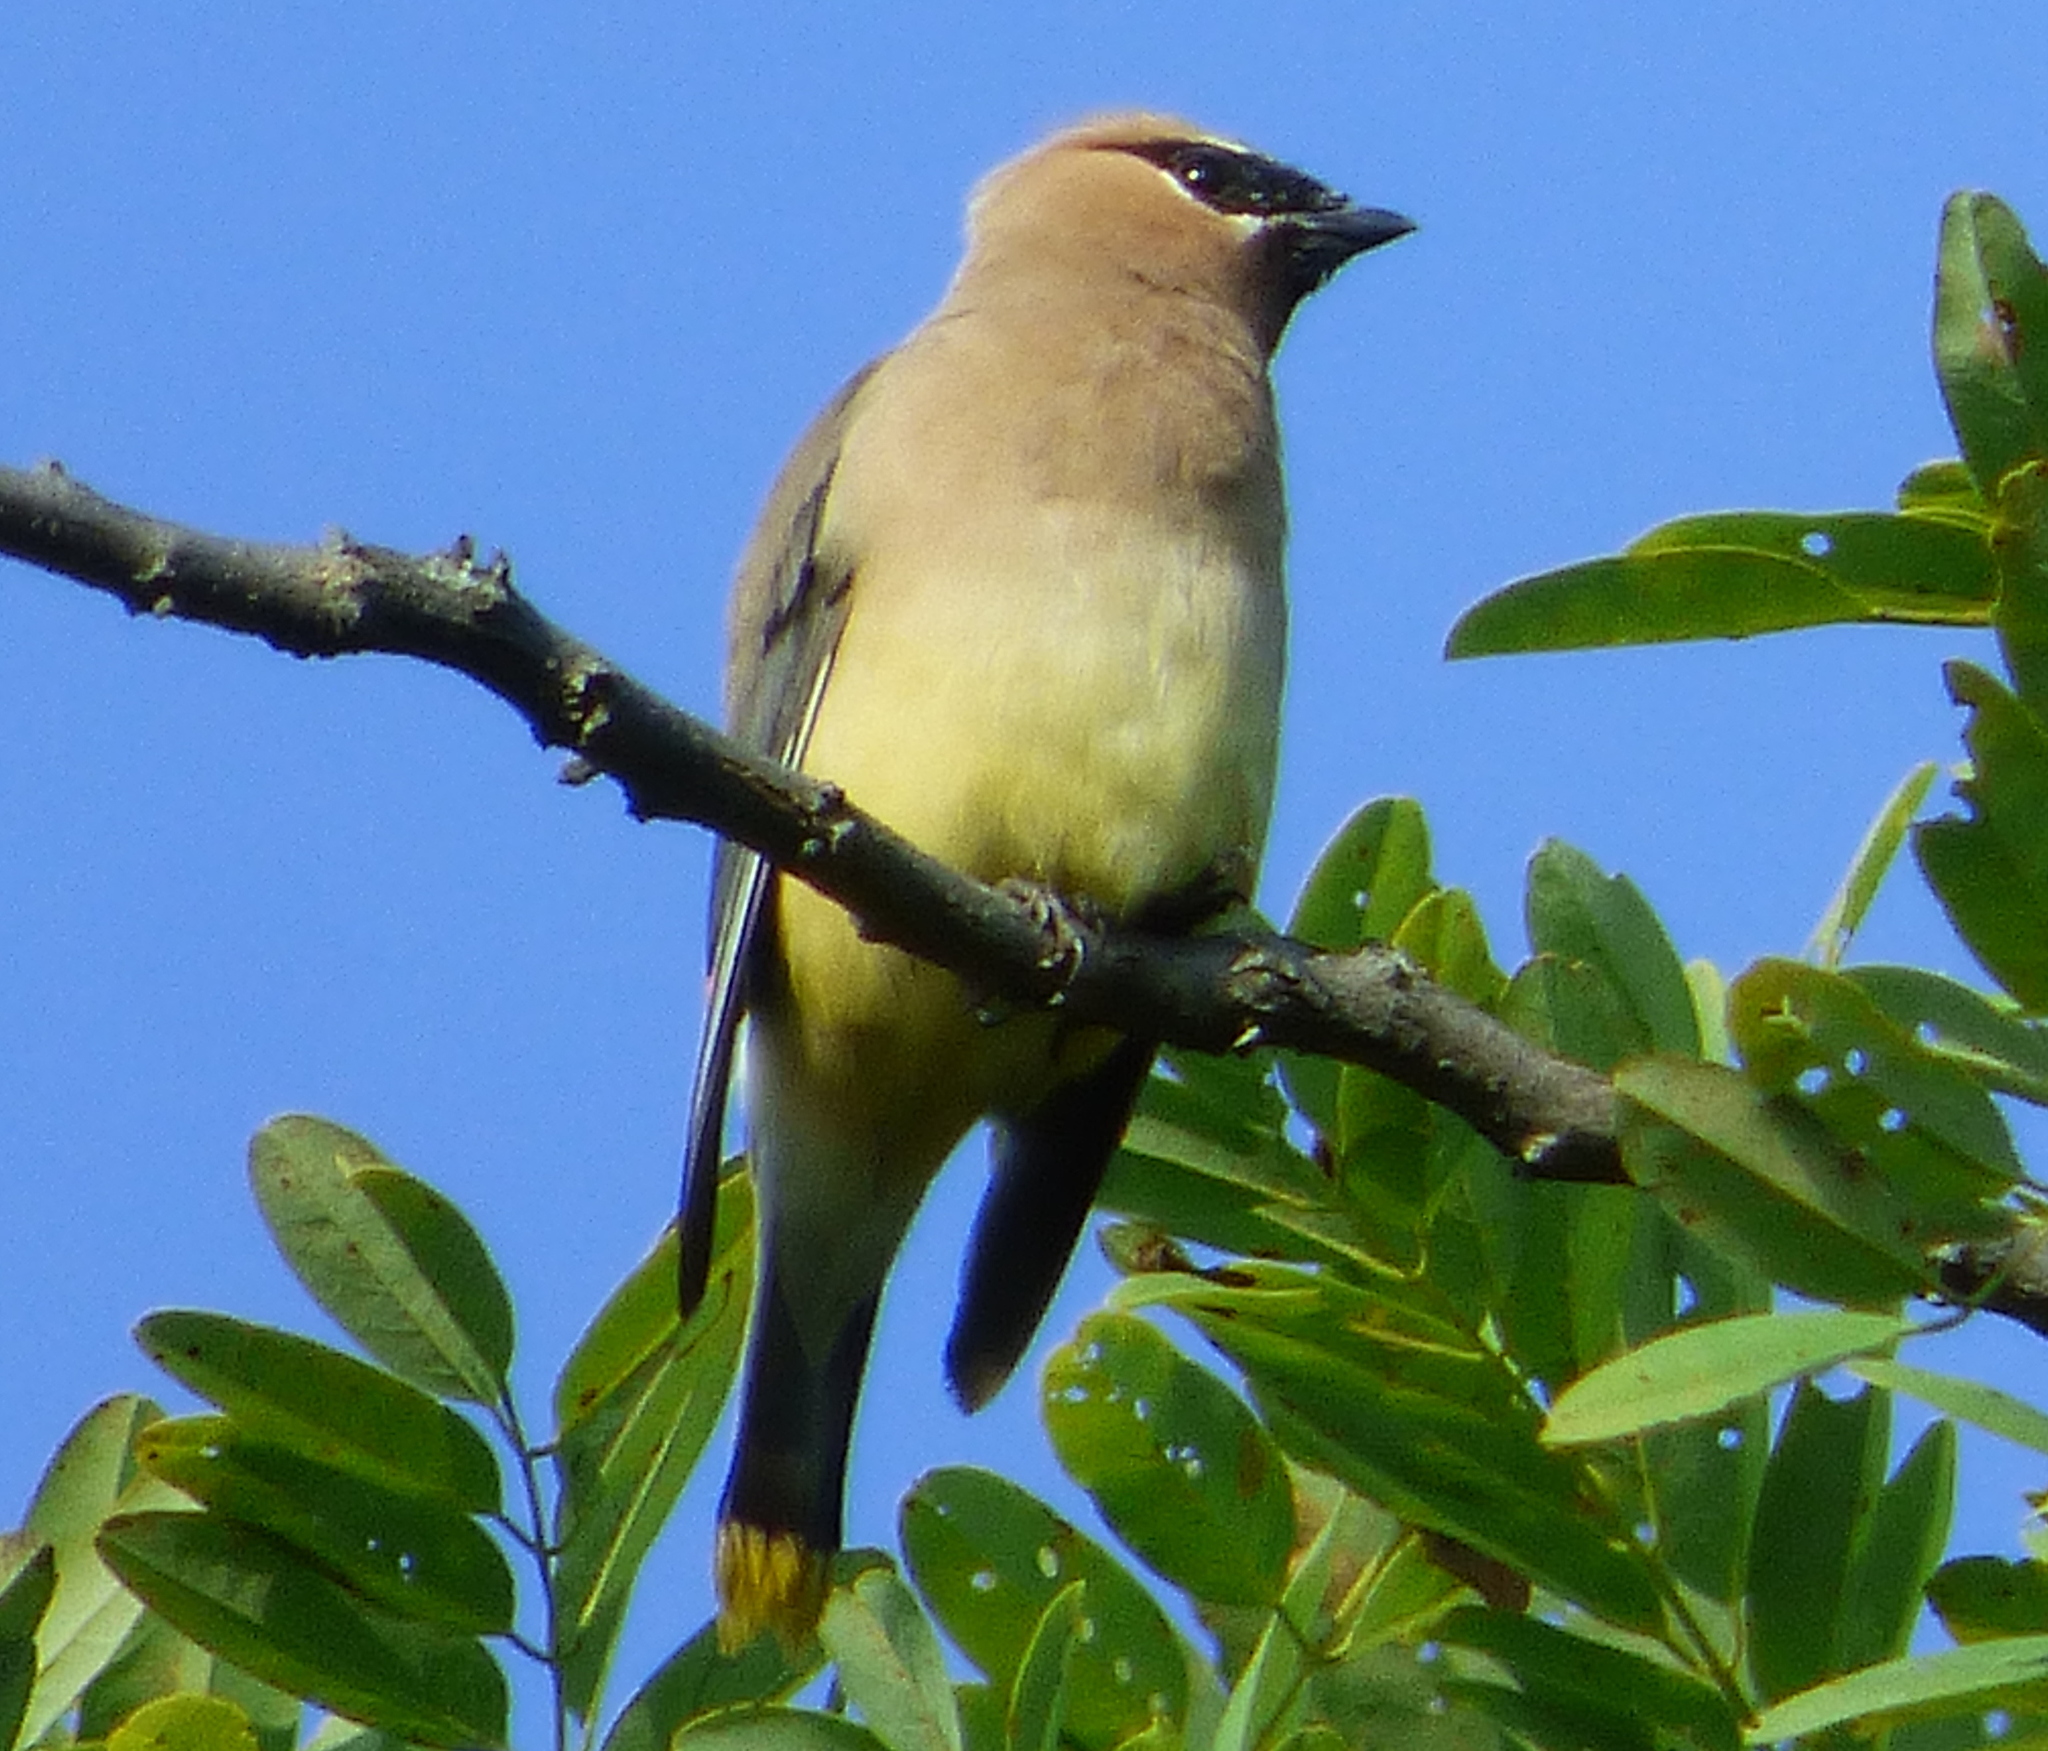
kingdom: Animalia
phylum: Chordata
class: Aves
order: Passeriformes
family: Bombycillidae
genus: Bombycilla
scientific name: Bombycilla cedrorum
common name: Cedar waxwing
